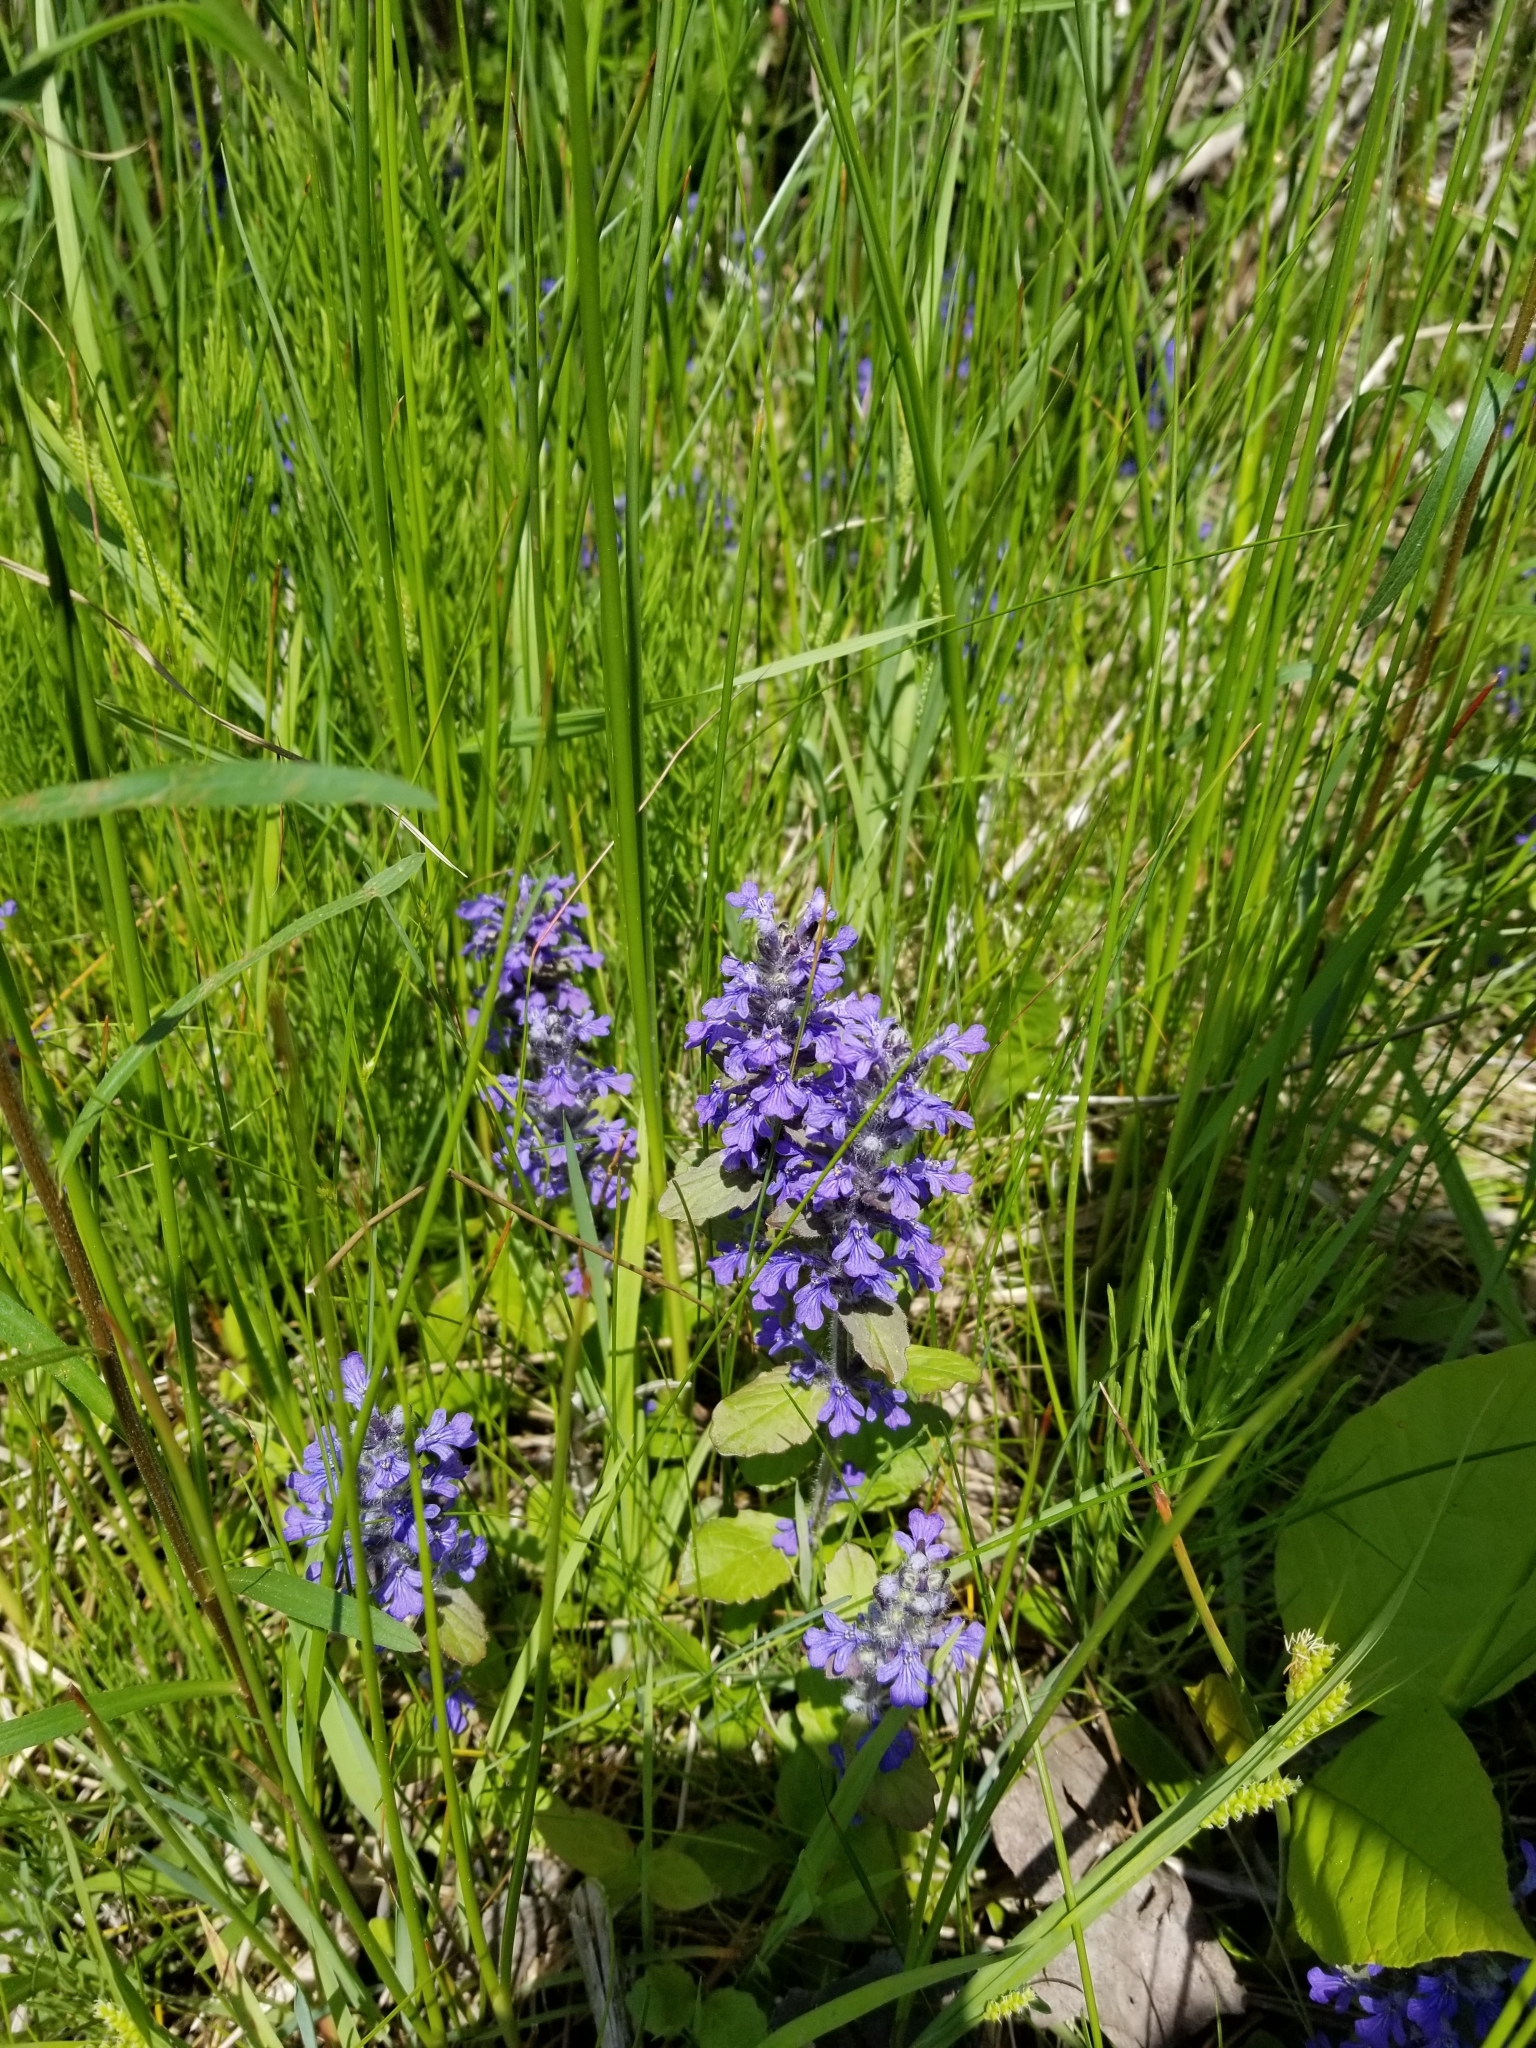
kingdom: Plantae
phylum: Tracheophyta
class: Magnoliopsida
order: Lamiales
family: Lamiaceae
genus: Ajuga
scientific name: Ajuga reptans
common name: Bugle
